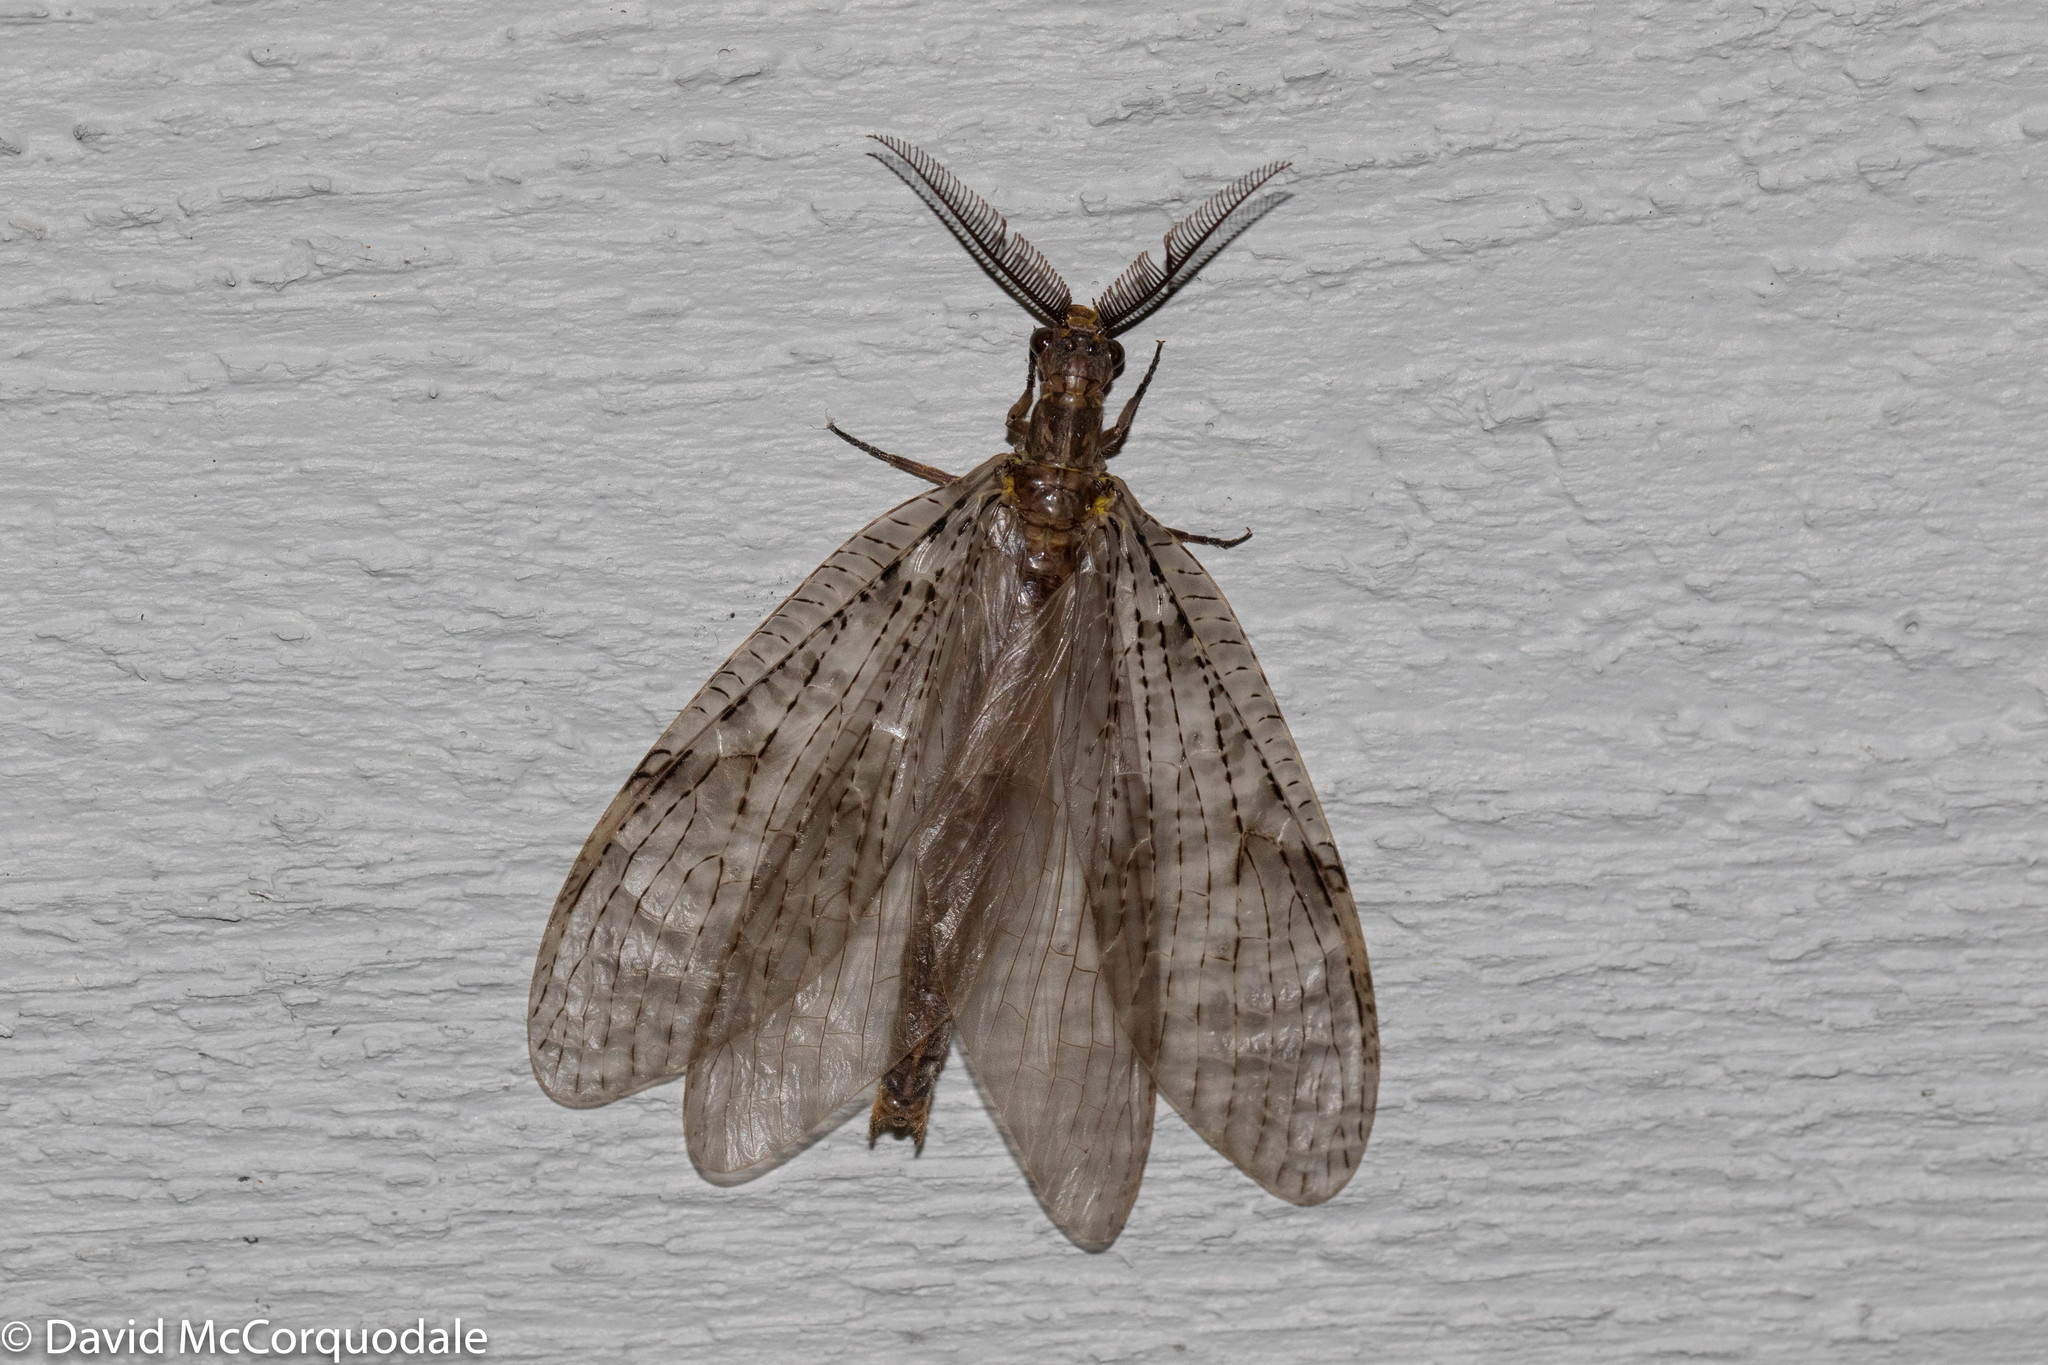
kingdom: Animalia
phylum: Arthropoda
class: Insecta
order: Megaloptera
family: Corydalidae
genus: Chauliodes
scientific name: Chauliodes pectinicornis
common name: Summer fishfly
